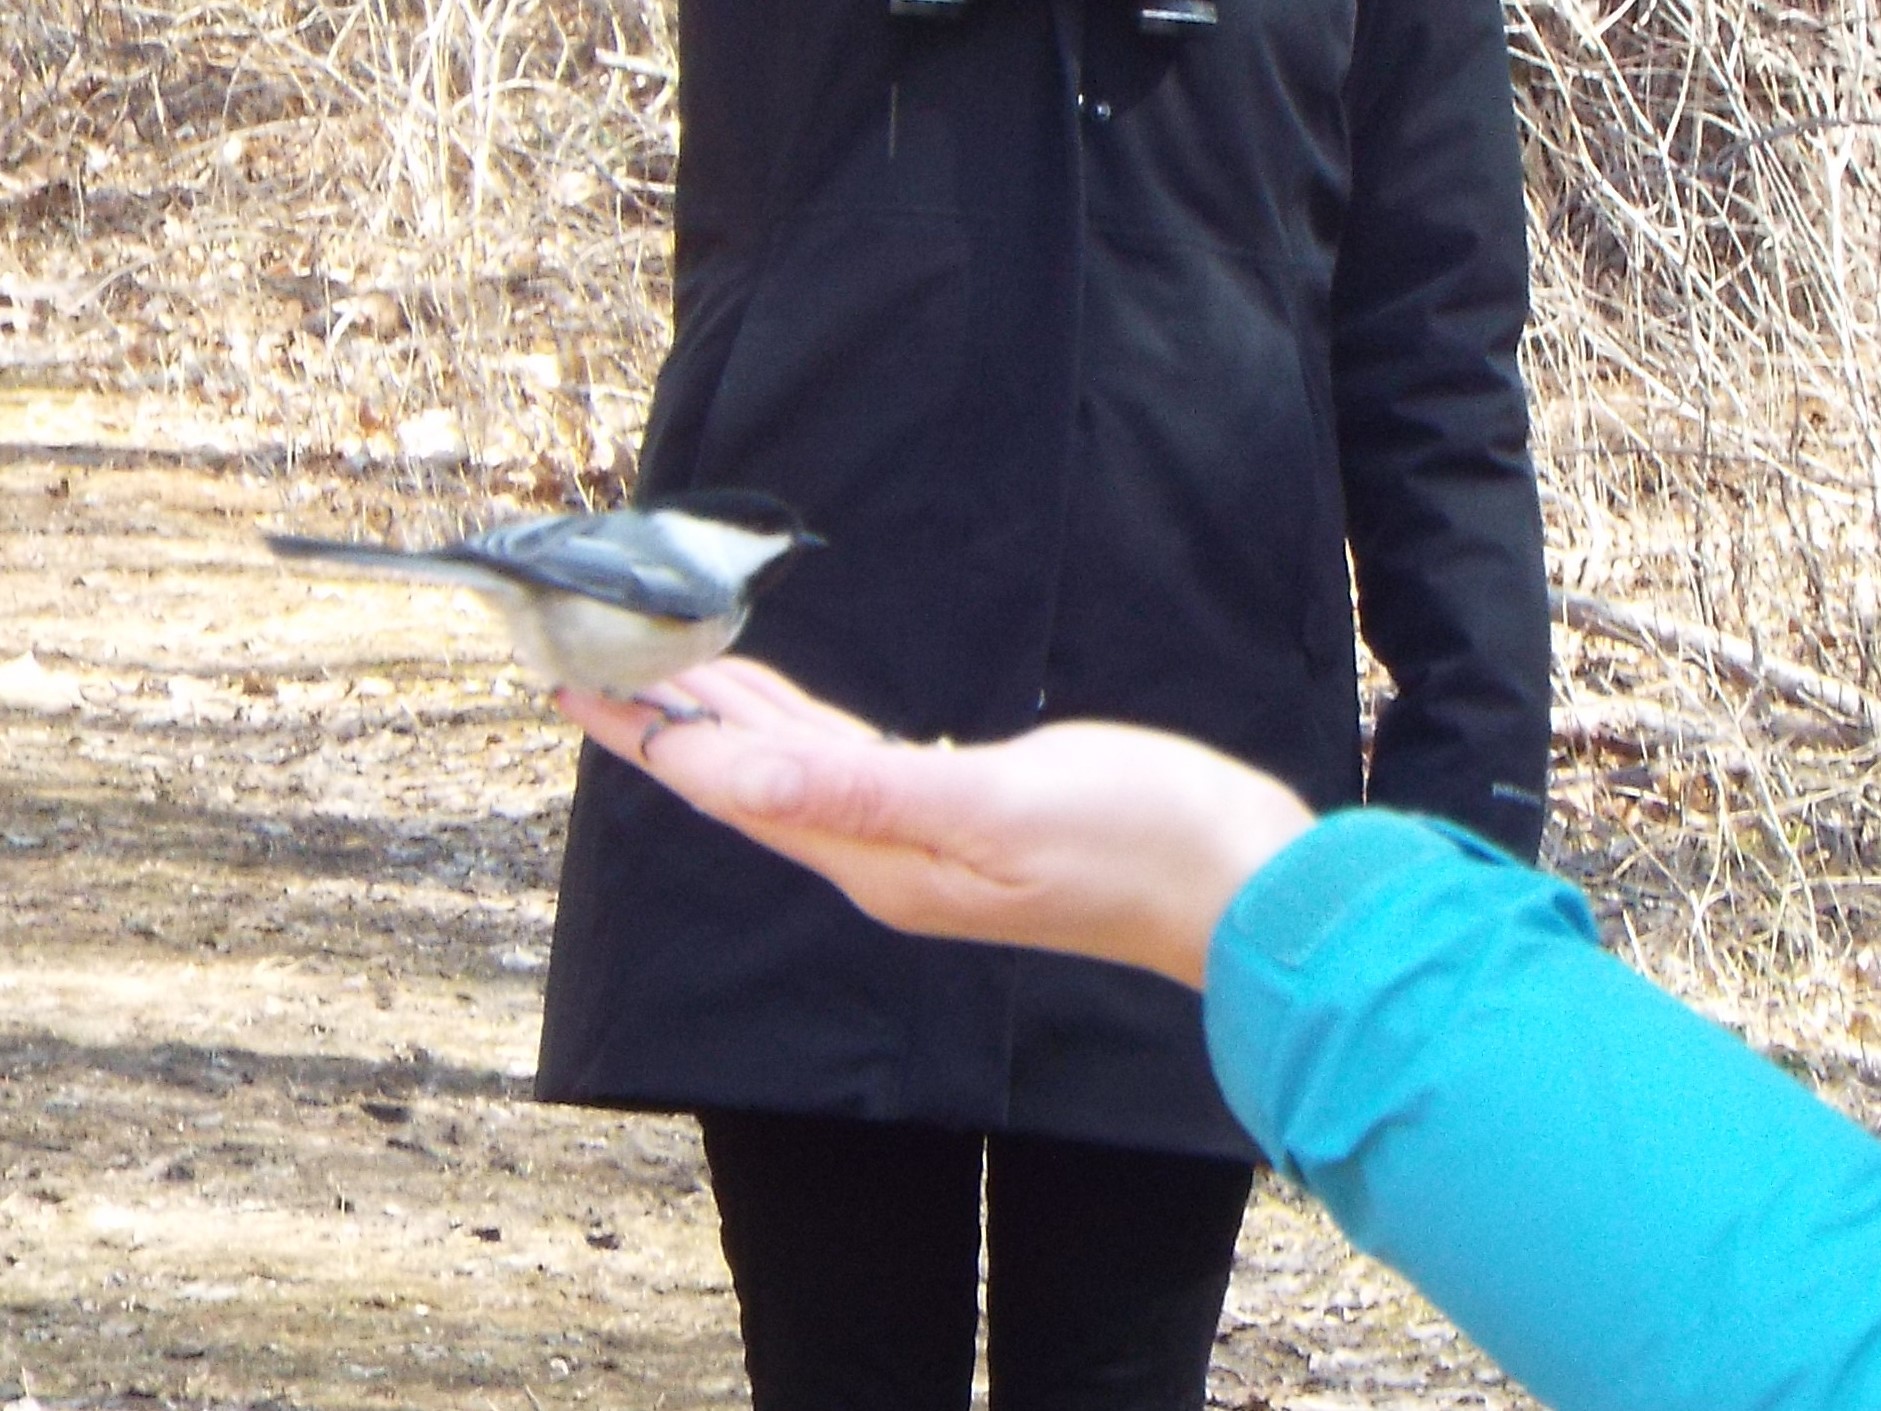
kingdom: Animalia
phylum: Chordata
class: Aves
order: Passeriformes
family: Paridae
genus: Poecile
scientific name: Poecile atricapillus
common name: Black-capped chickadee
